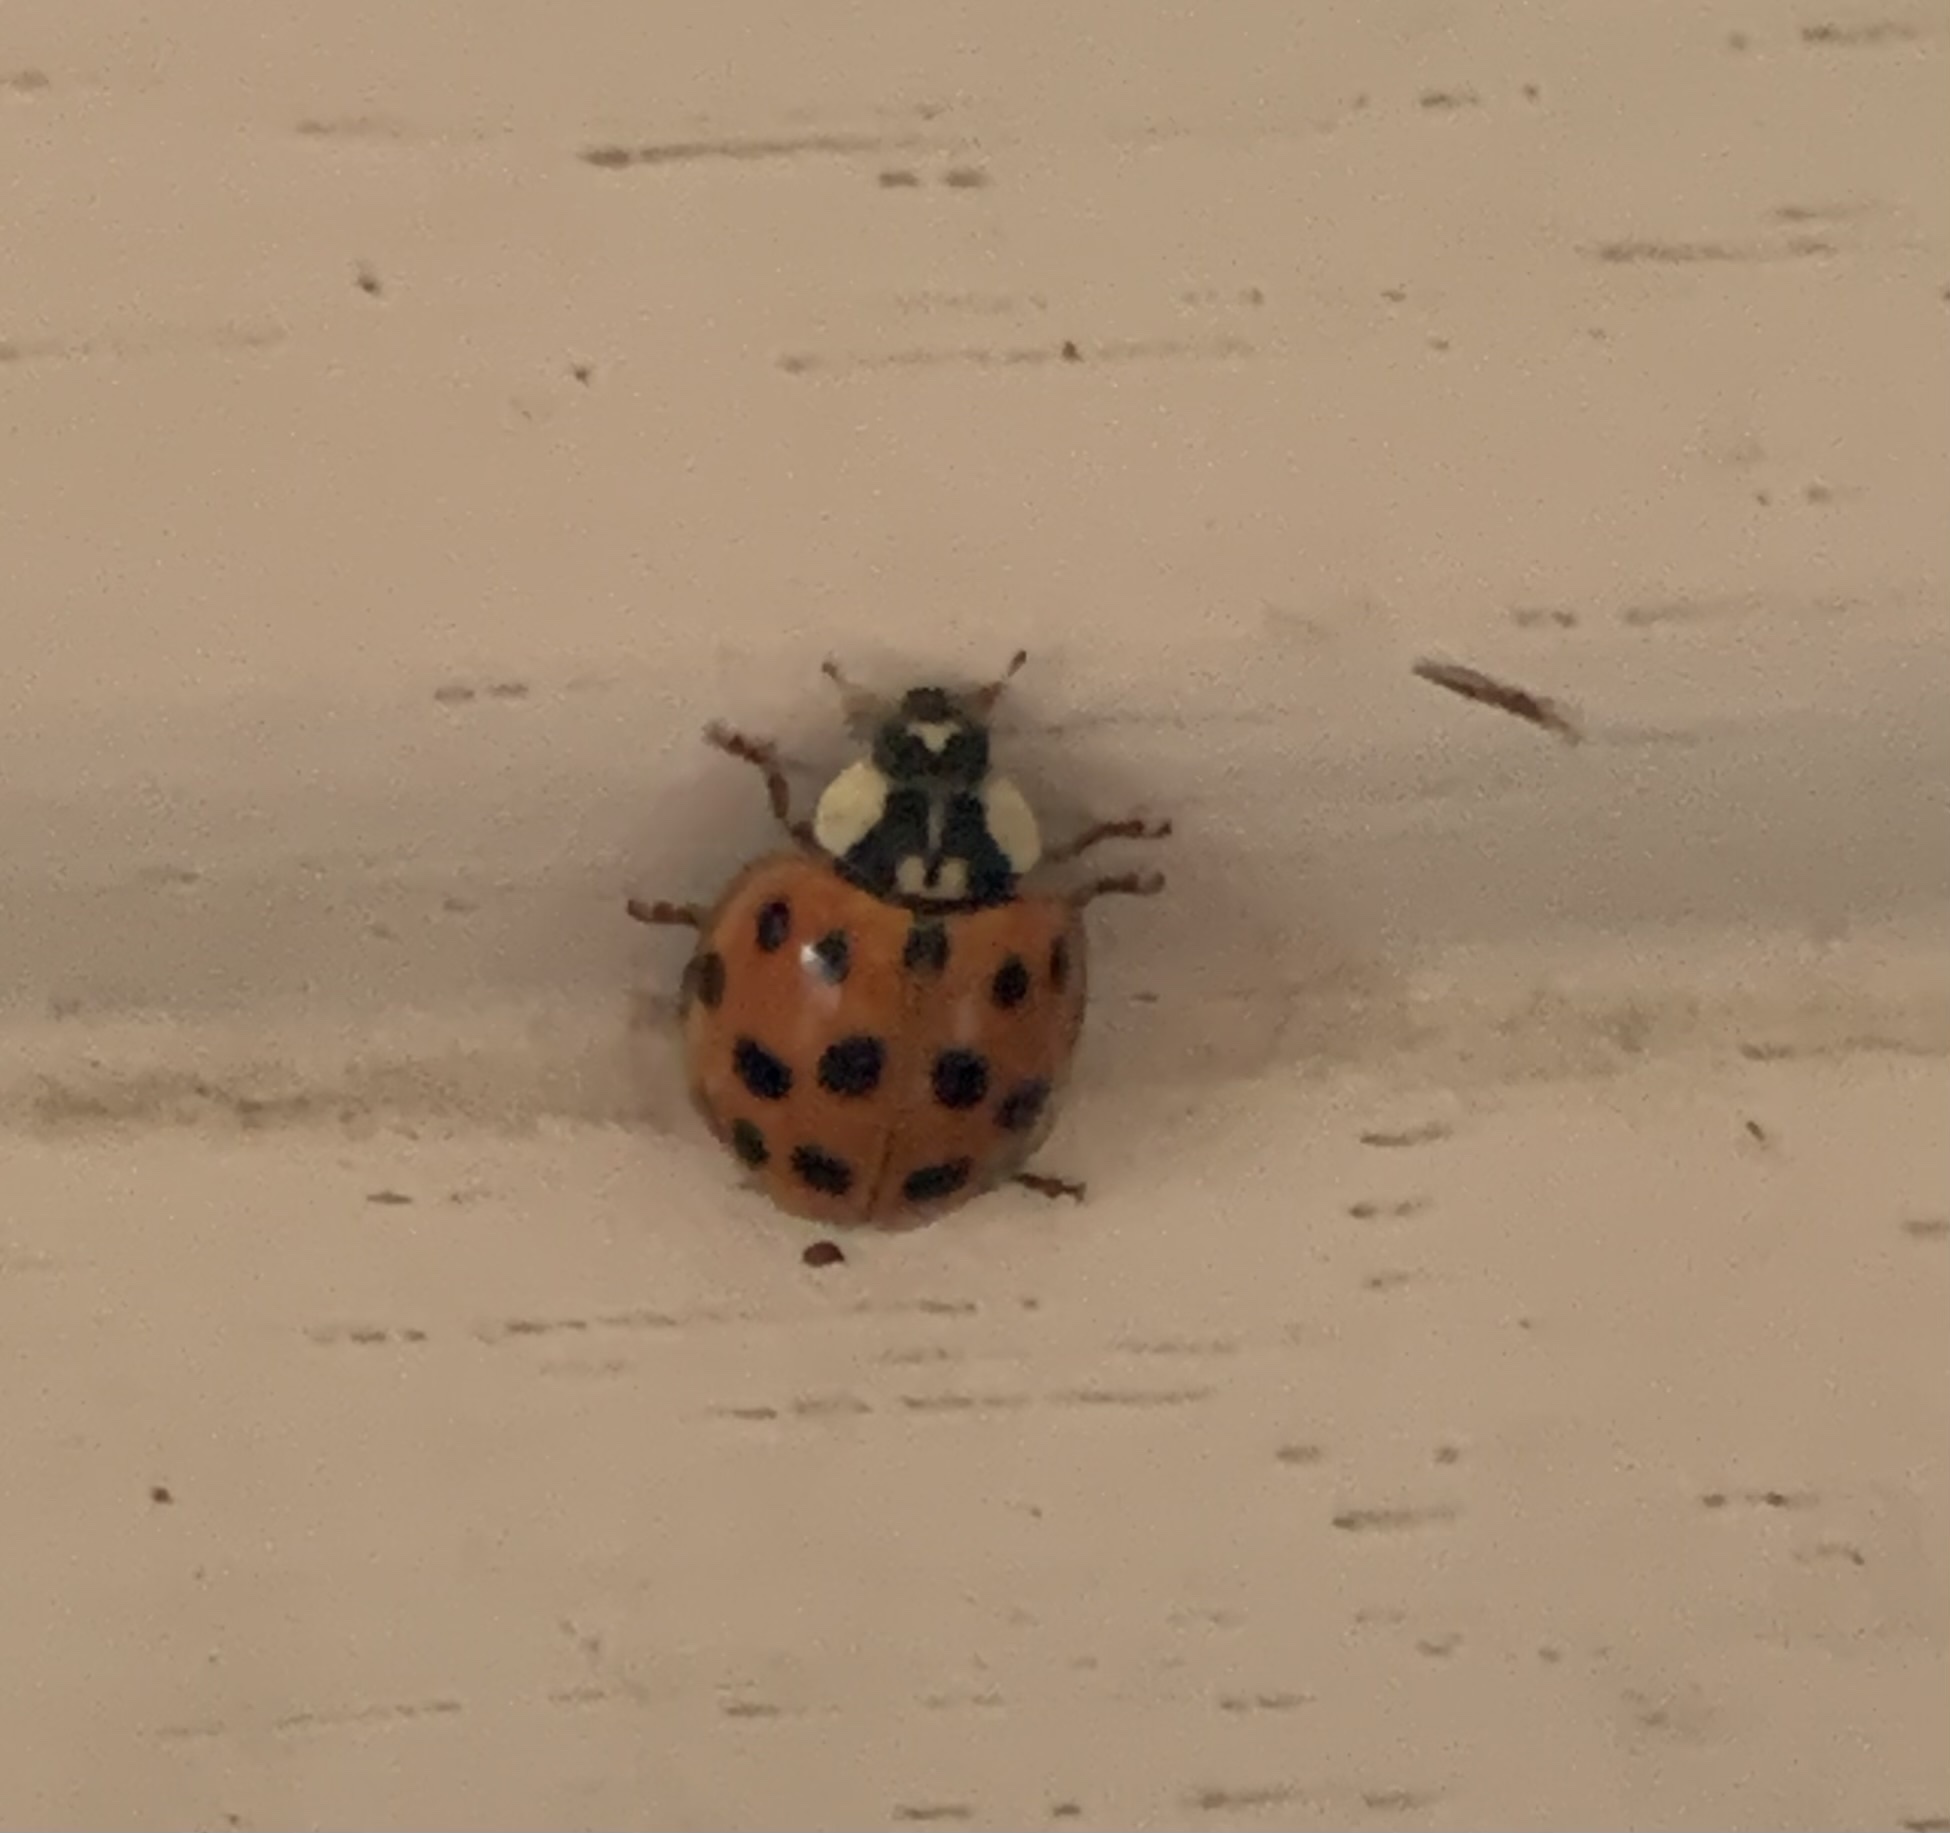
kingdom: Animalia
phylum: Arthropoda
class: Insecta
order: Coleoptera
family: Coccinellidae
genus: Harmonia
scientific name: Harmonia axyridis
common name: Harlequin ladybird
